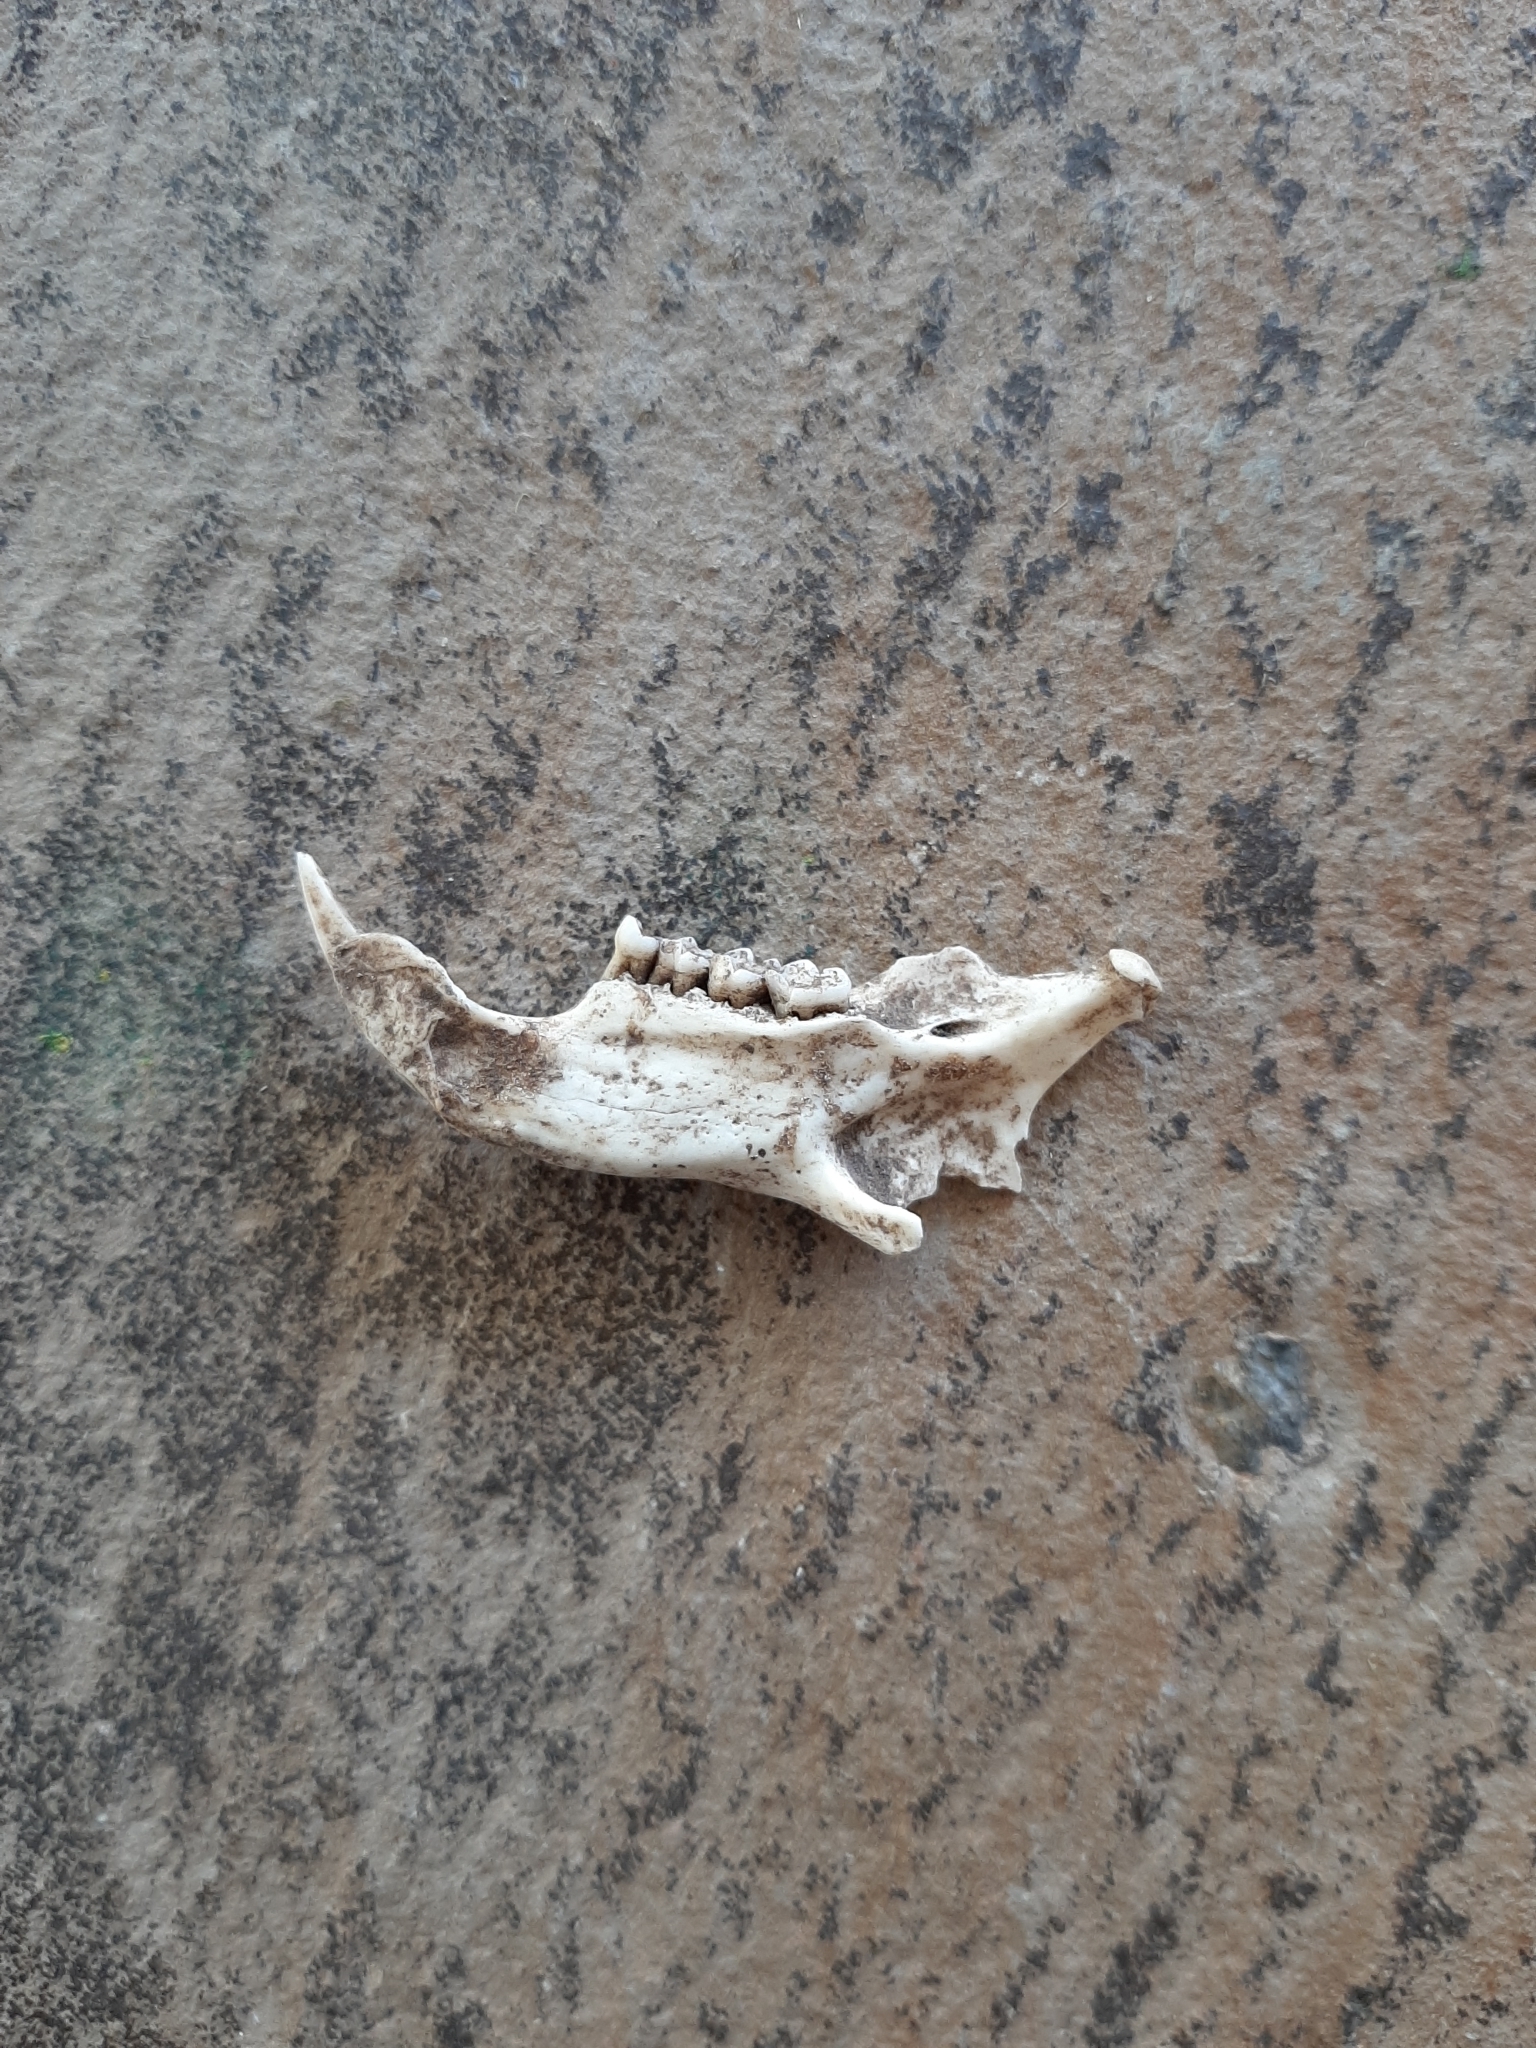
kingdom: Animalia
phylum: Chordata
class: Mammalia
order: Rodentia
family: Sciuridae
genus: Otospermophilus
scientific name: Otospermophilus variegatus
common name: Rock squirrel
